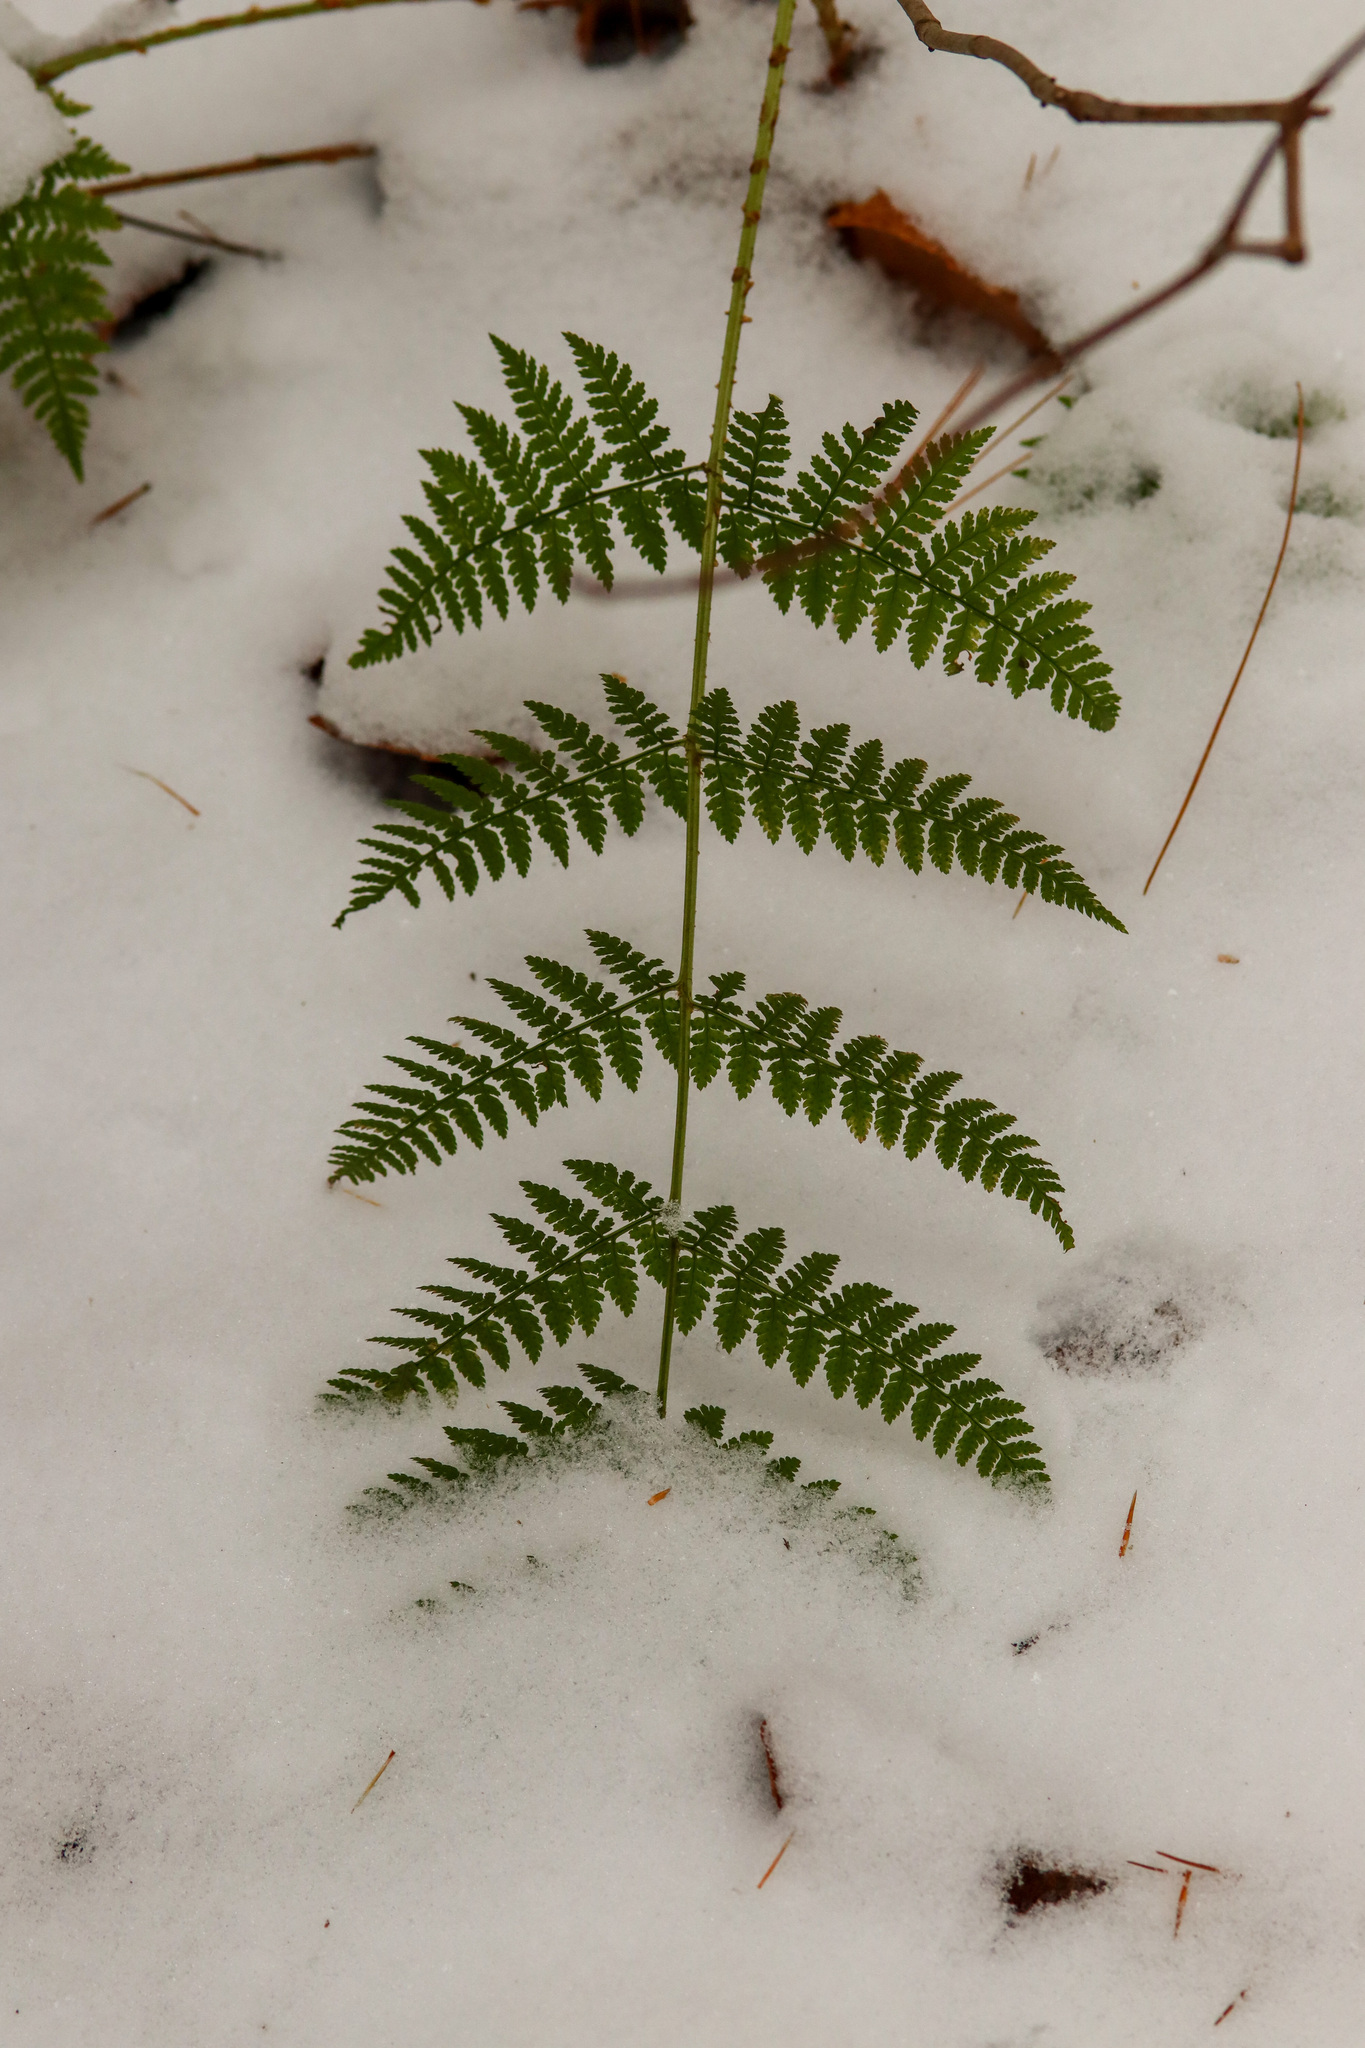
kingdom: Plantae
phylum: Tracheophyta
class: Polypodiopsida
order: Polypodiales
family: Dryopteridaceae
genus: Dryopteris
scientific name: Dryopteris intermedia
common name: Evergreen wood fern
